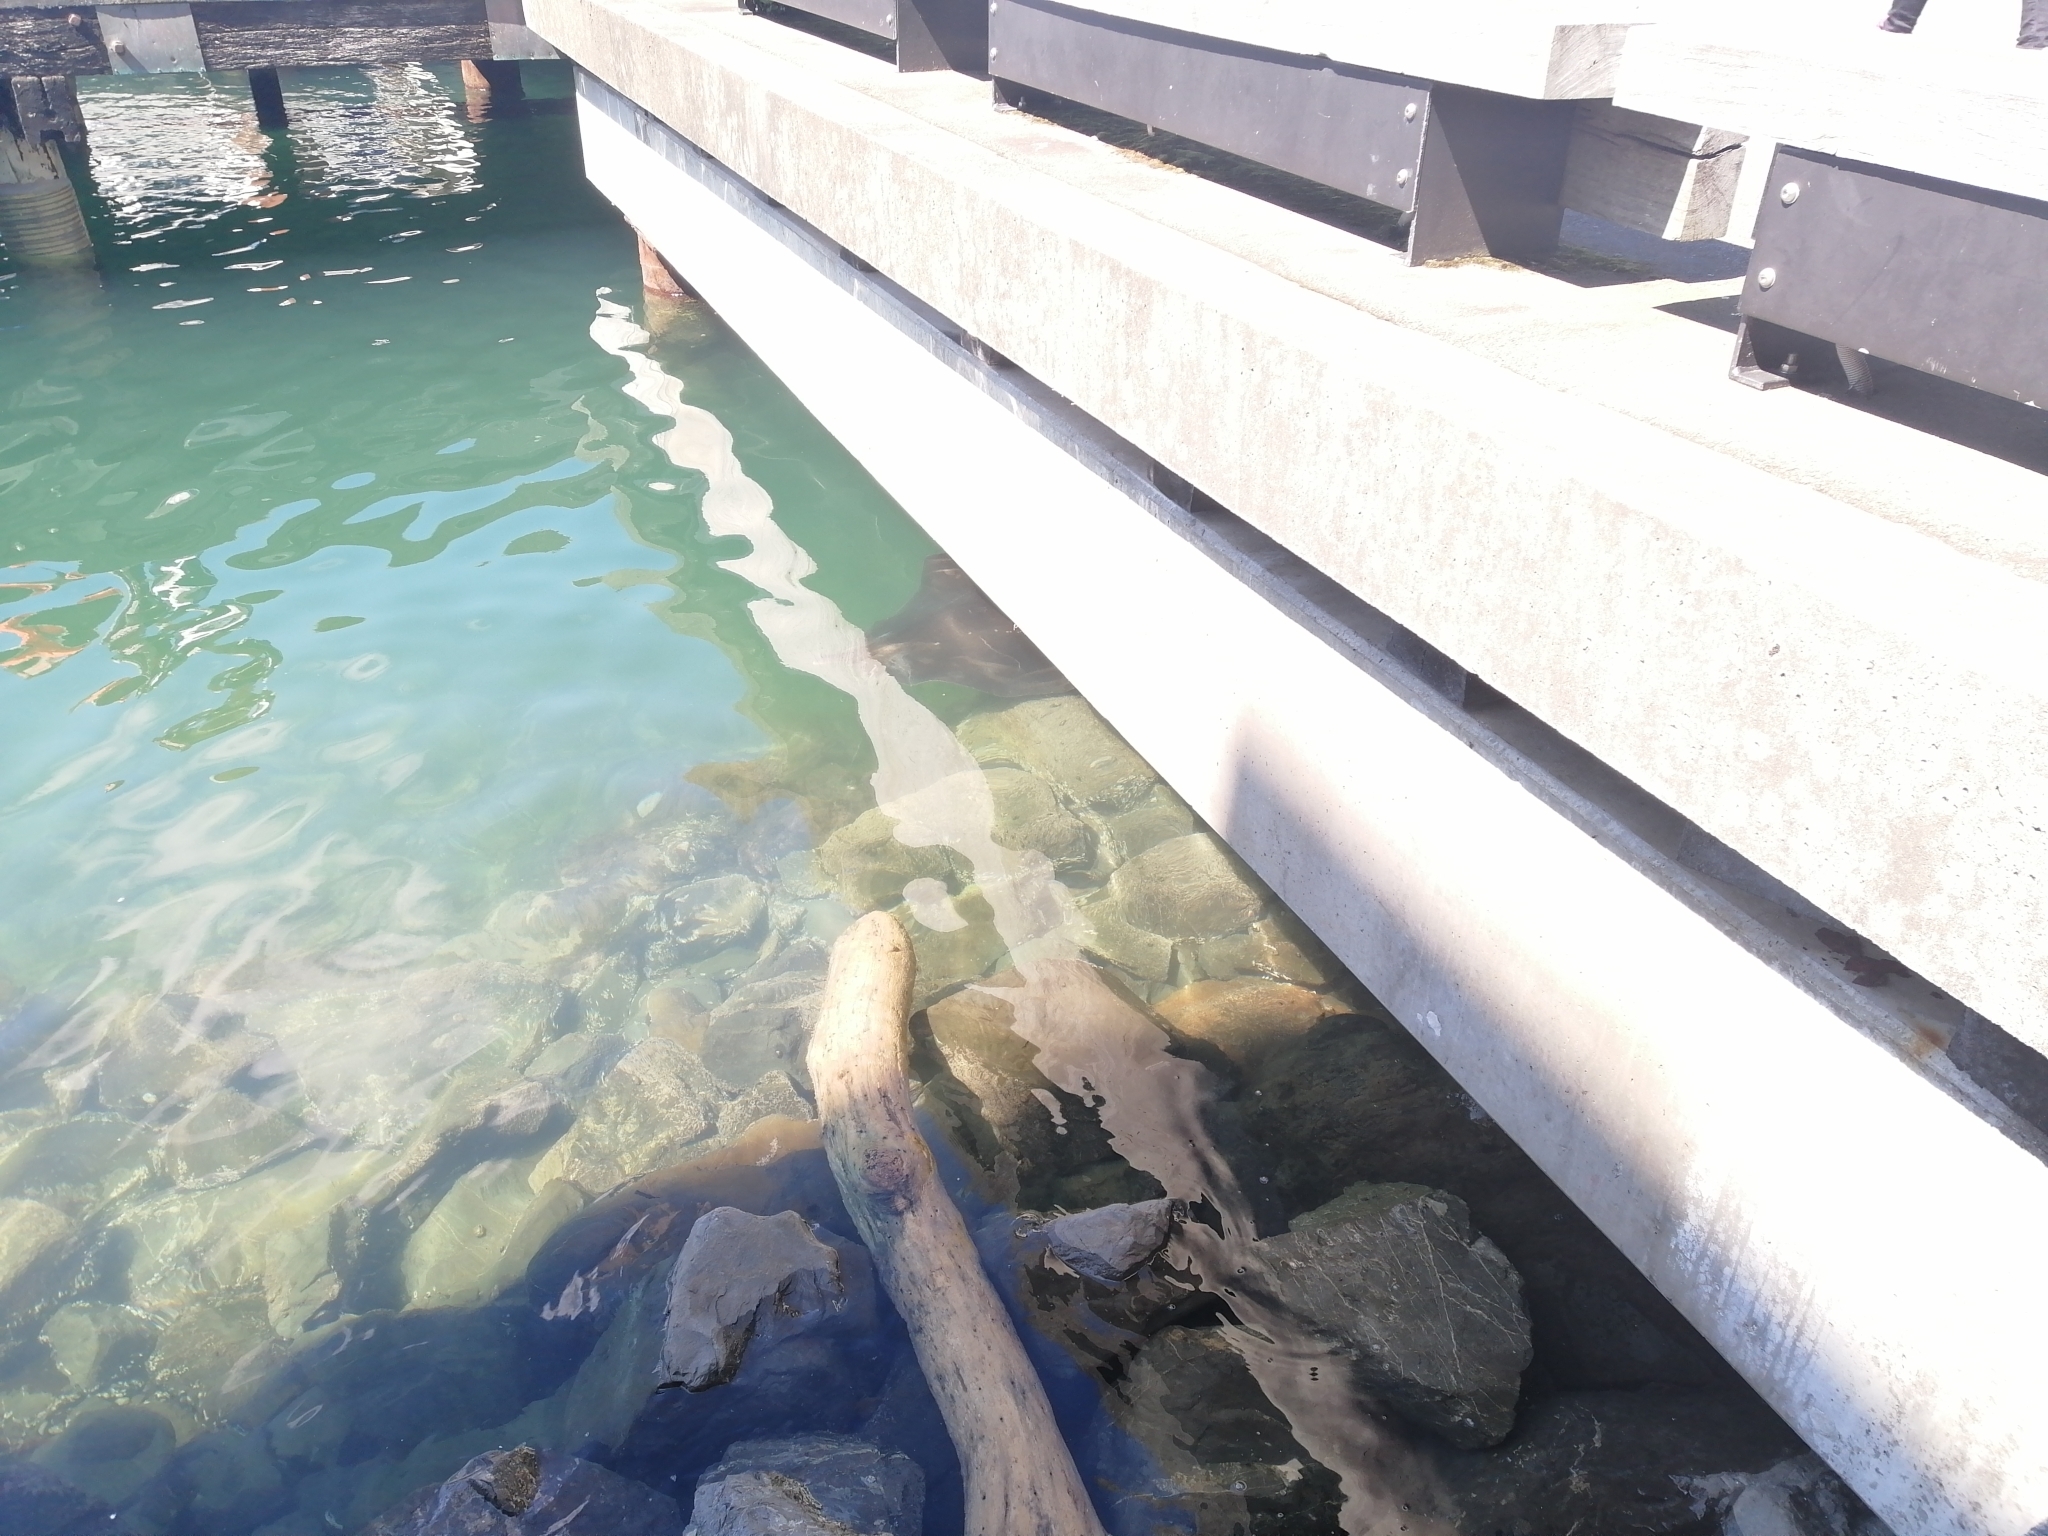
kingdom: Animalia
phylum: Chordata
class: Elasmobranchii
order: Myliobatiformes
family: Dasyatidae
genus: Bathytoshia
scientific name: Bathytoshia brevicaudata
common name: Short-tail stingray
